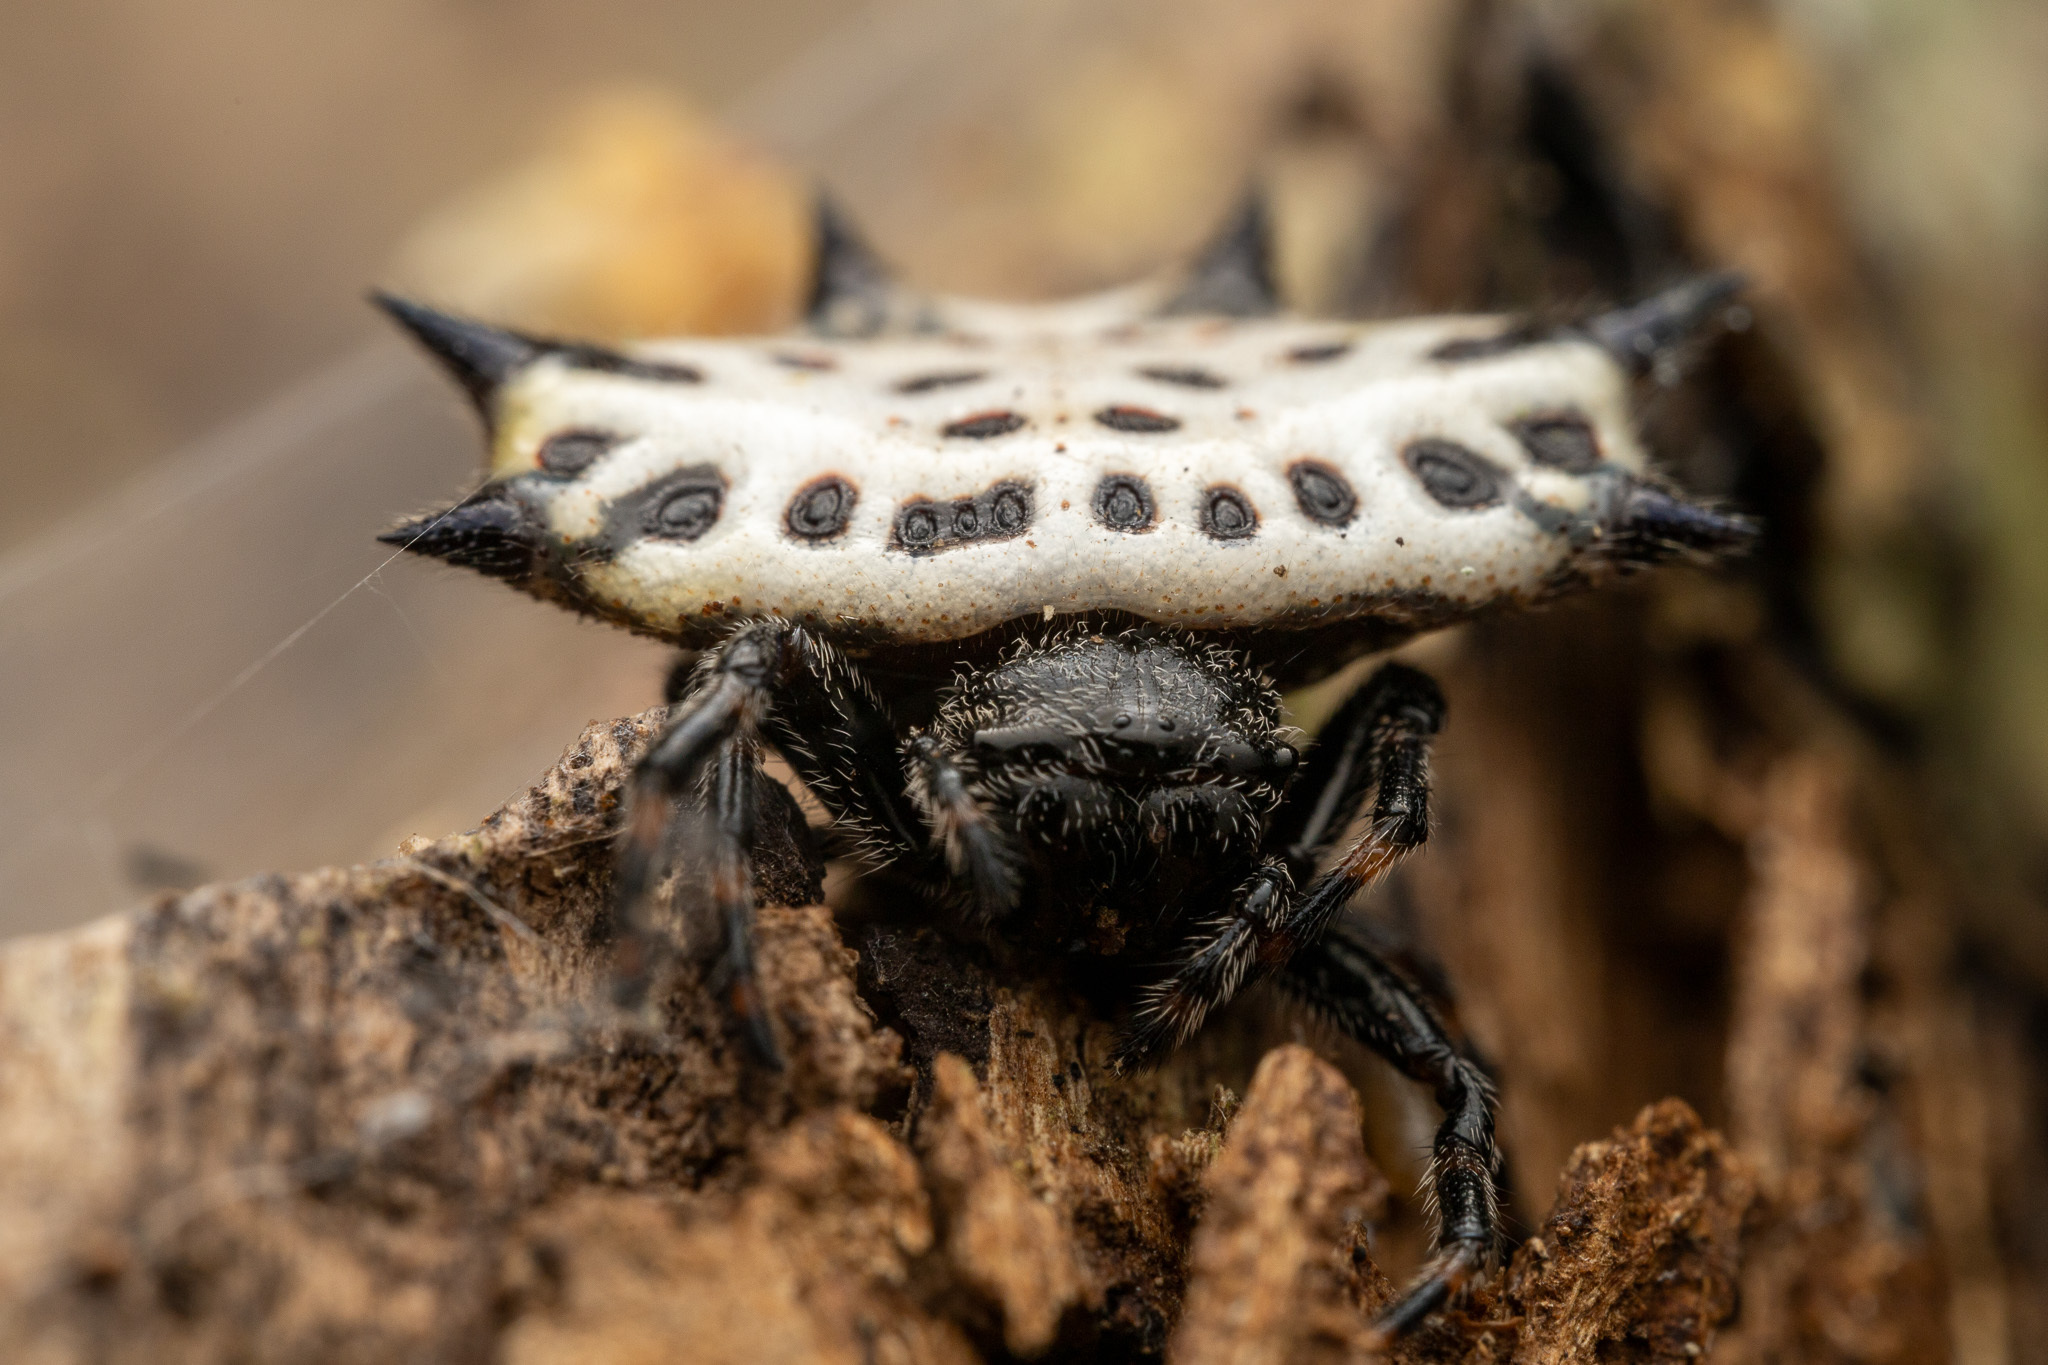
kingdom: Animalia
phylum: Arthropoda
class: Arachnida
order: Araneae
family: Araneidae
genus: Gasteracantha
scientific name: Gasteracantha cancriformis
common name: Orb weavers
